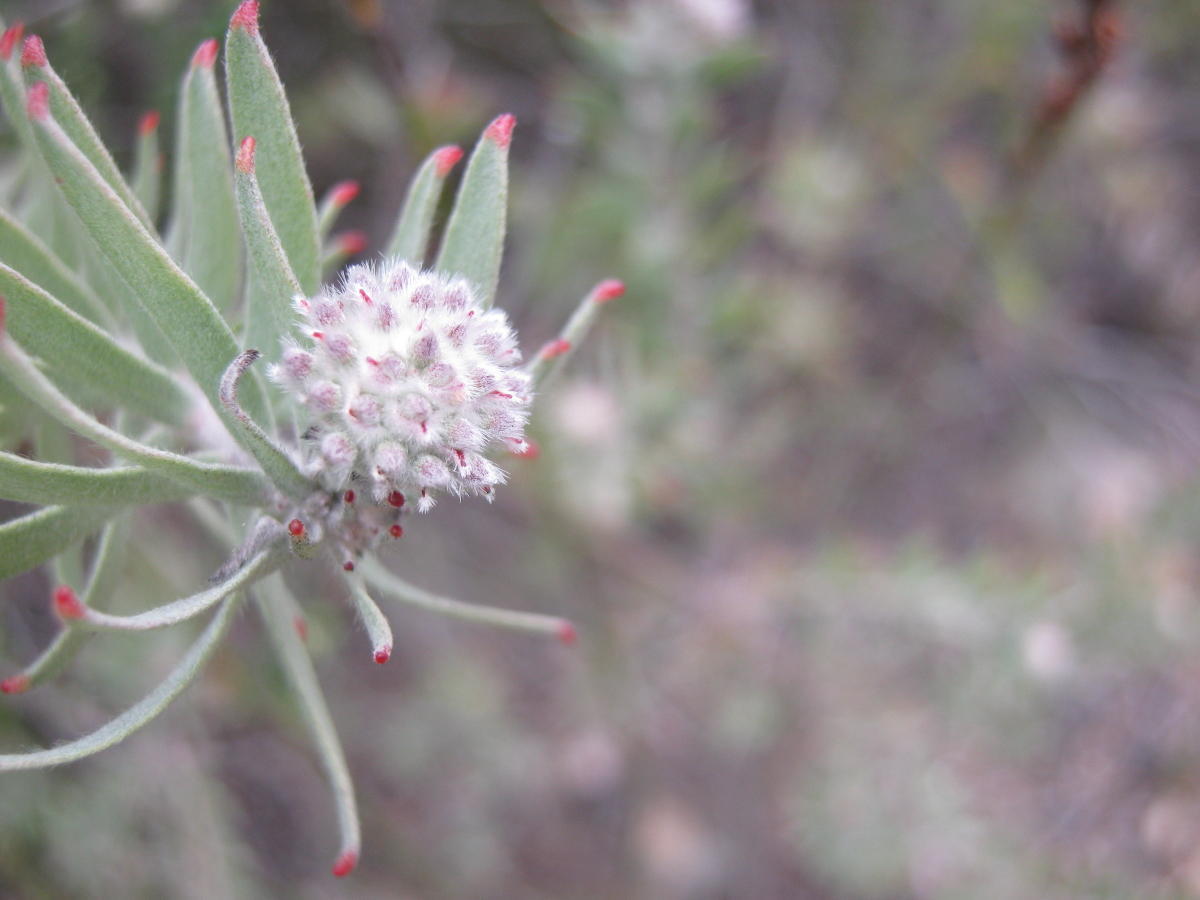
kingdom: Plantae
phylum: Tracheophyta
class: Magnoliopsida
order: Proteales
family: Proteaceae
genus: Leucospermum
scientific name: Leucospermum wittebergense
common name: Swartberg pincushion
